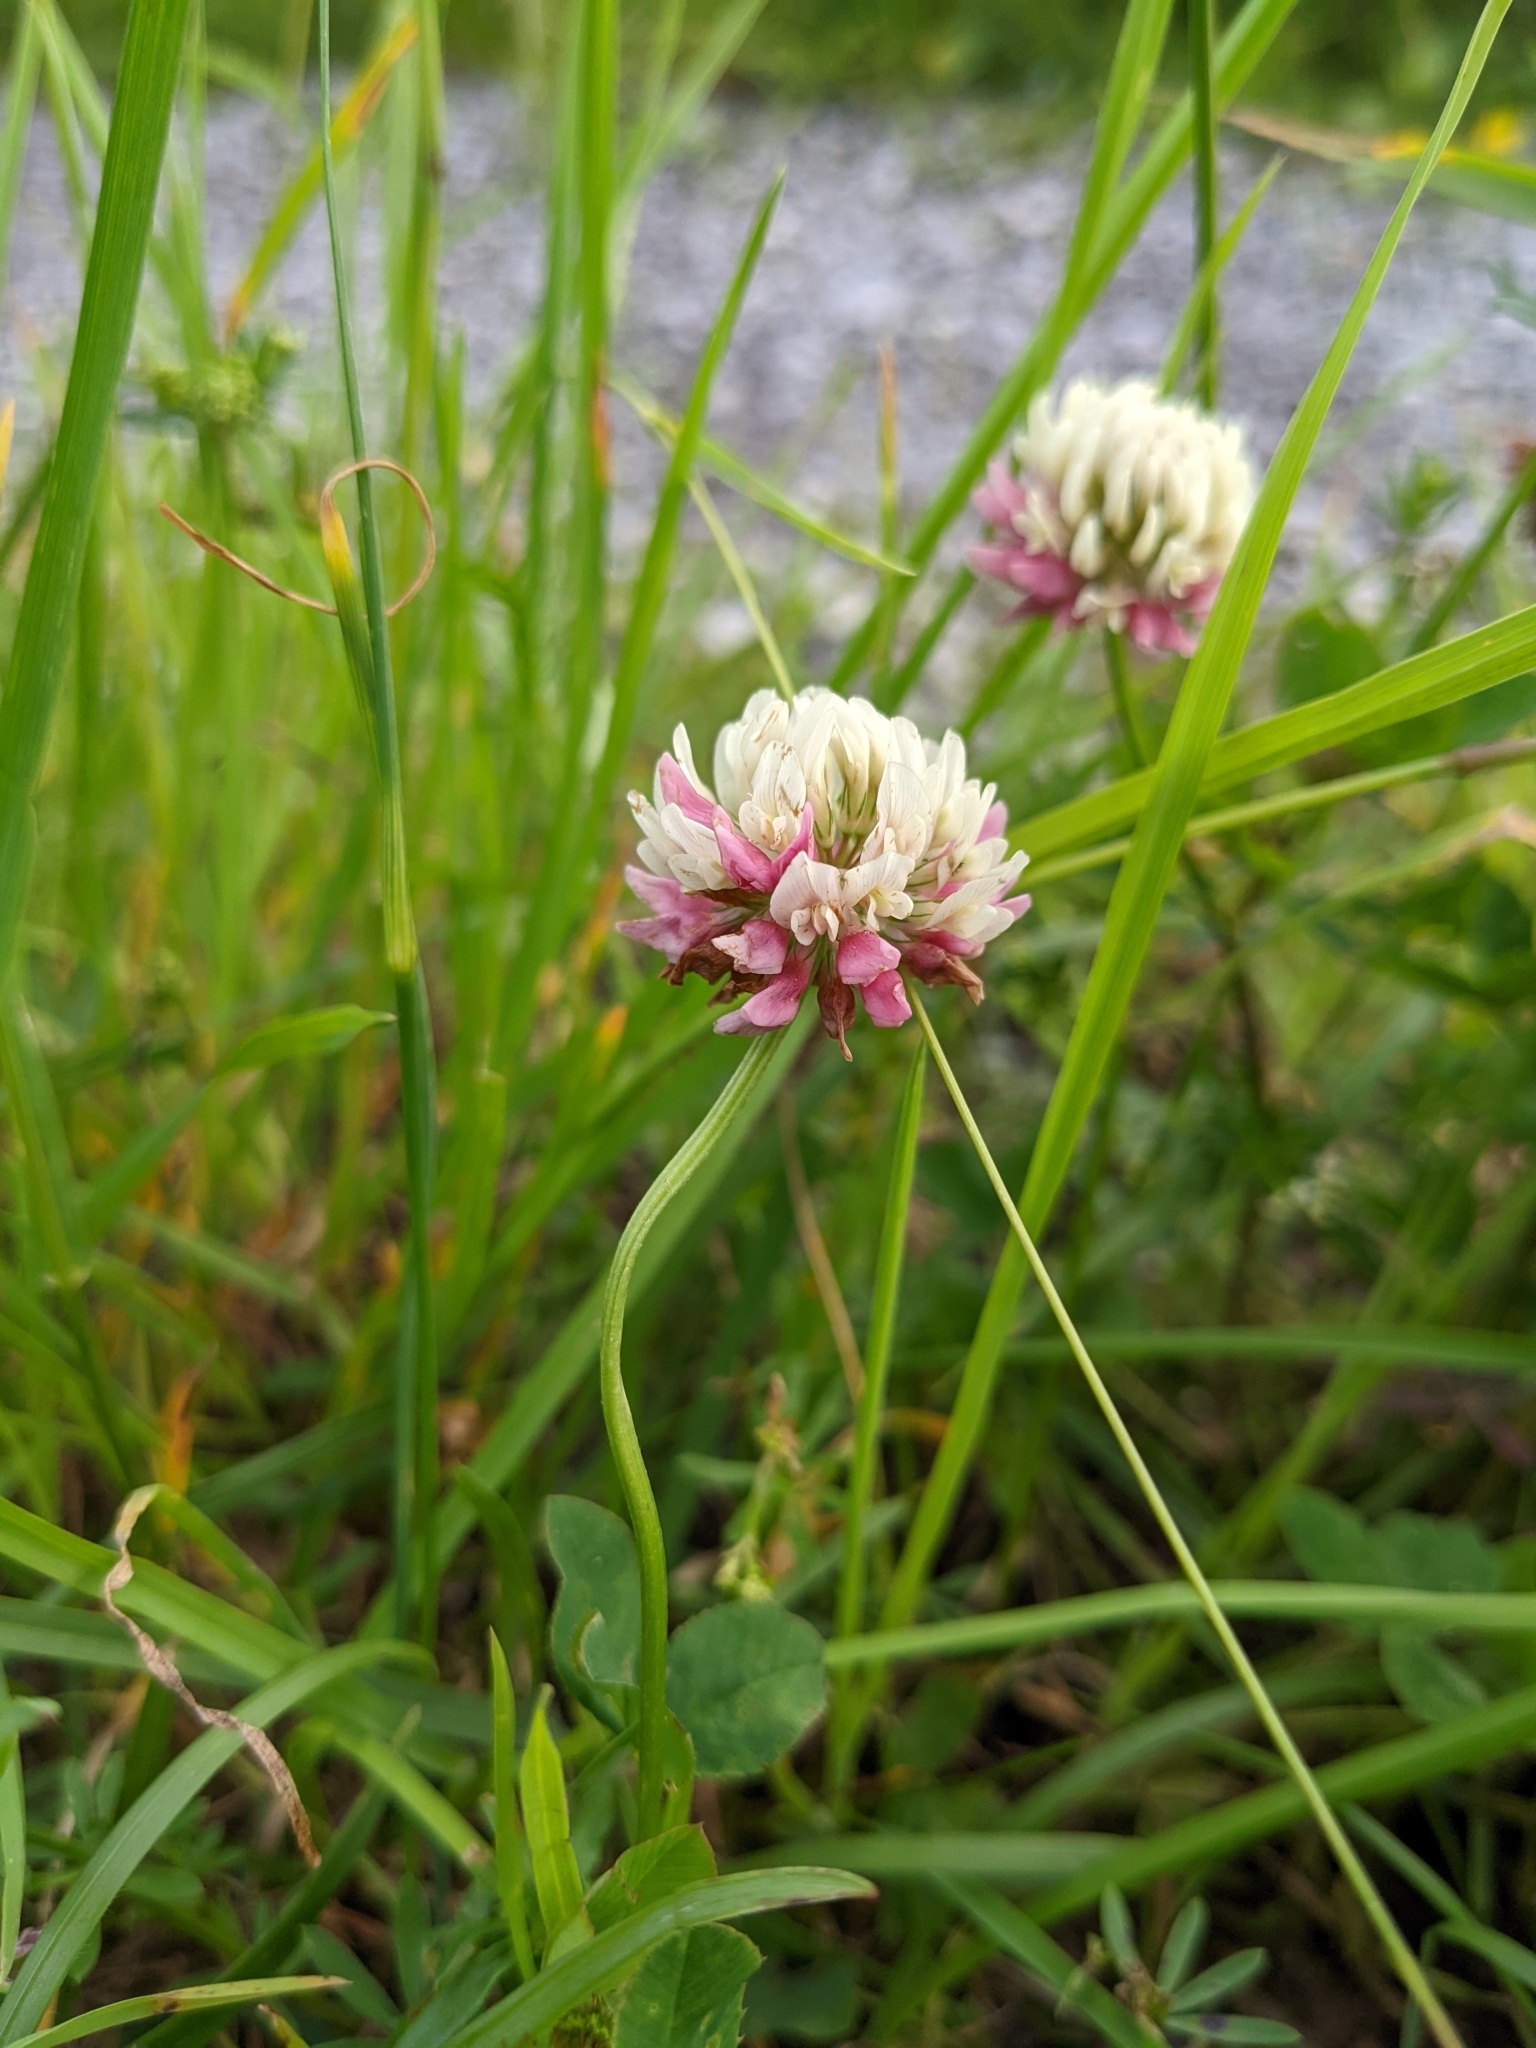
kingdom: Plantae
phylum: Tracheophyta
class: Magnoliopsida
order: Fabales
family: Fabaceae
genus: Trifolium
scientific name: Trifolium hybridum
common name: Alsike clover
